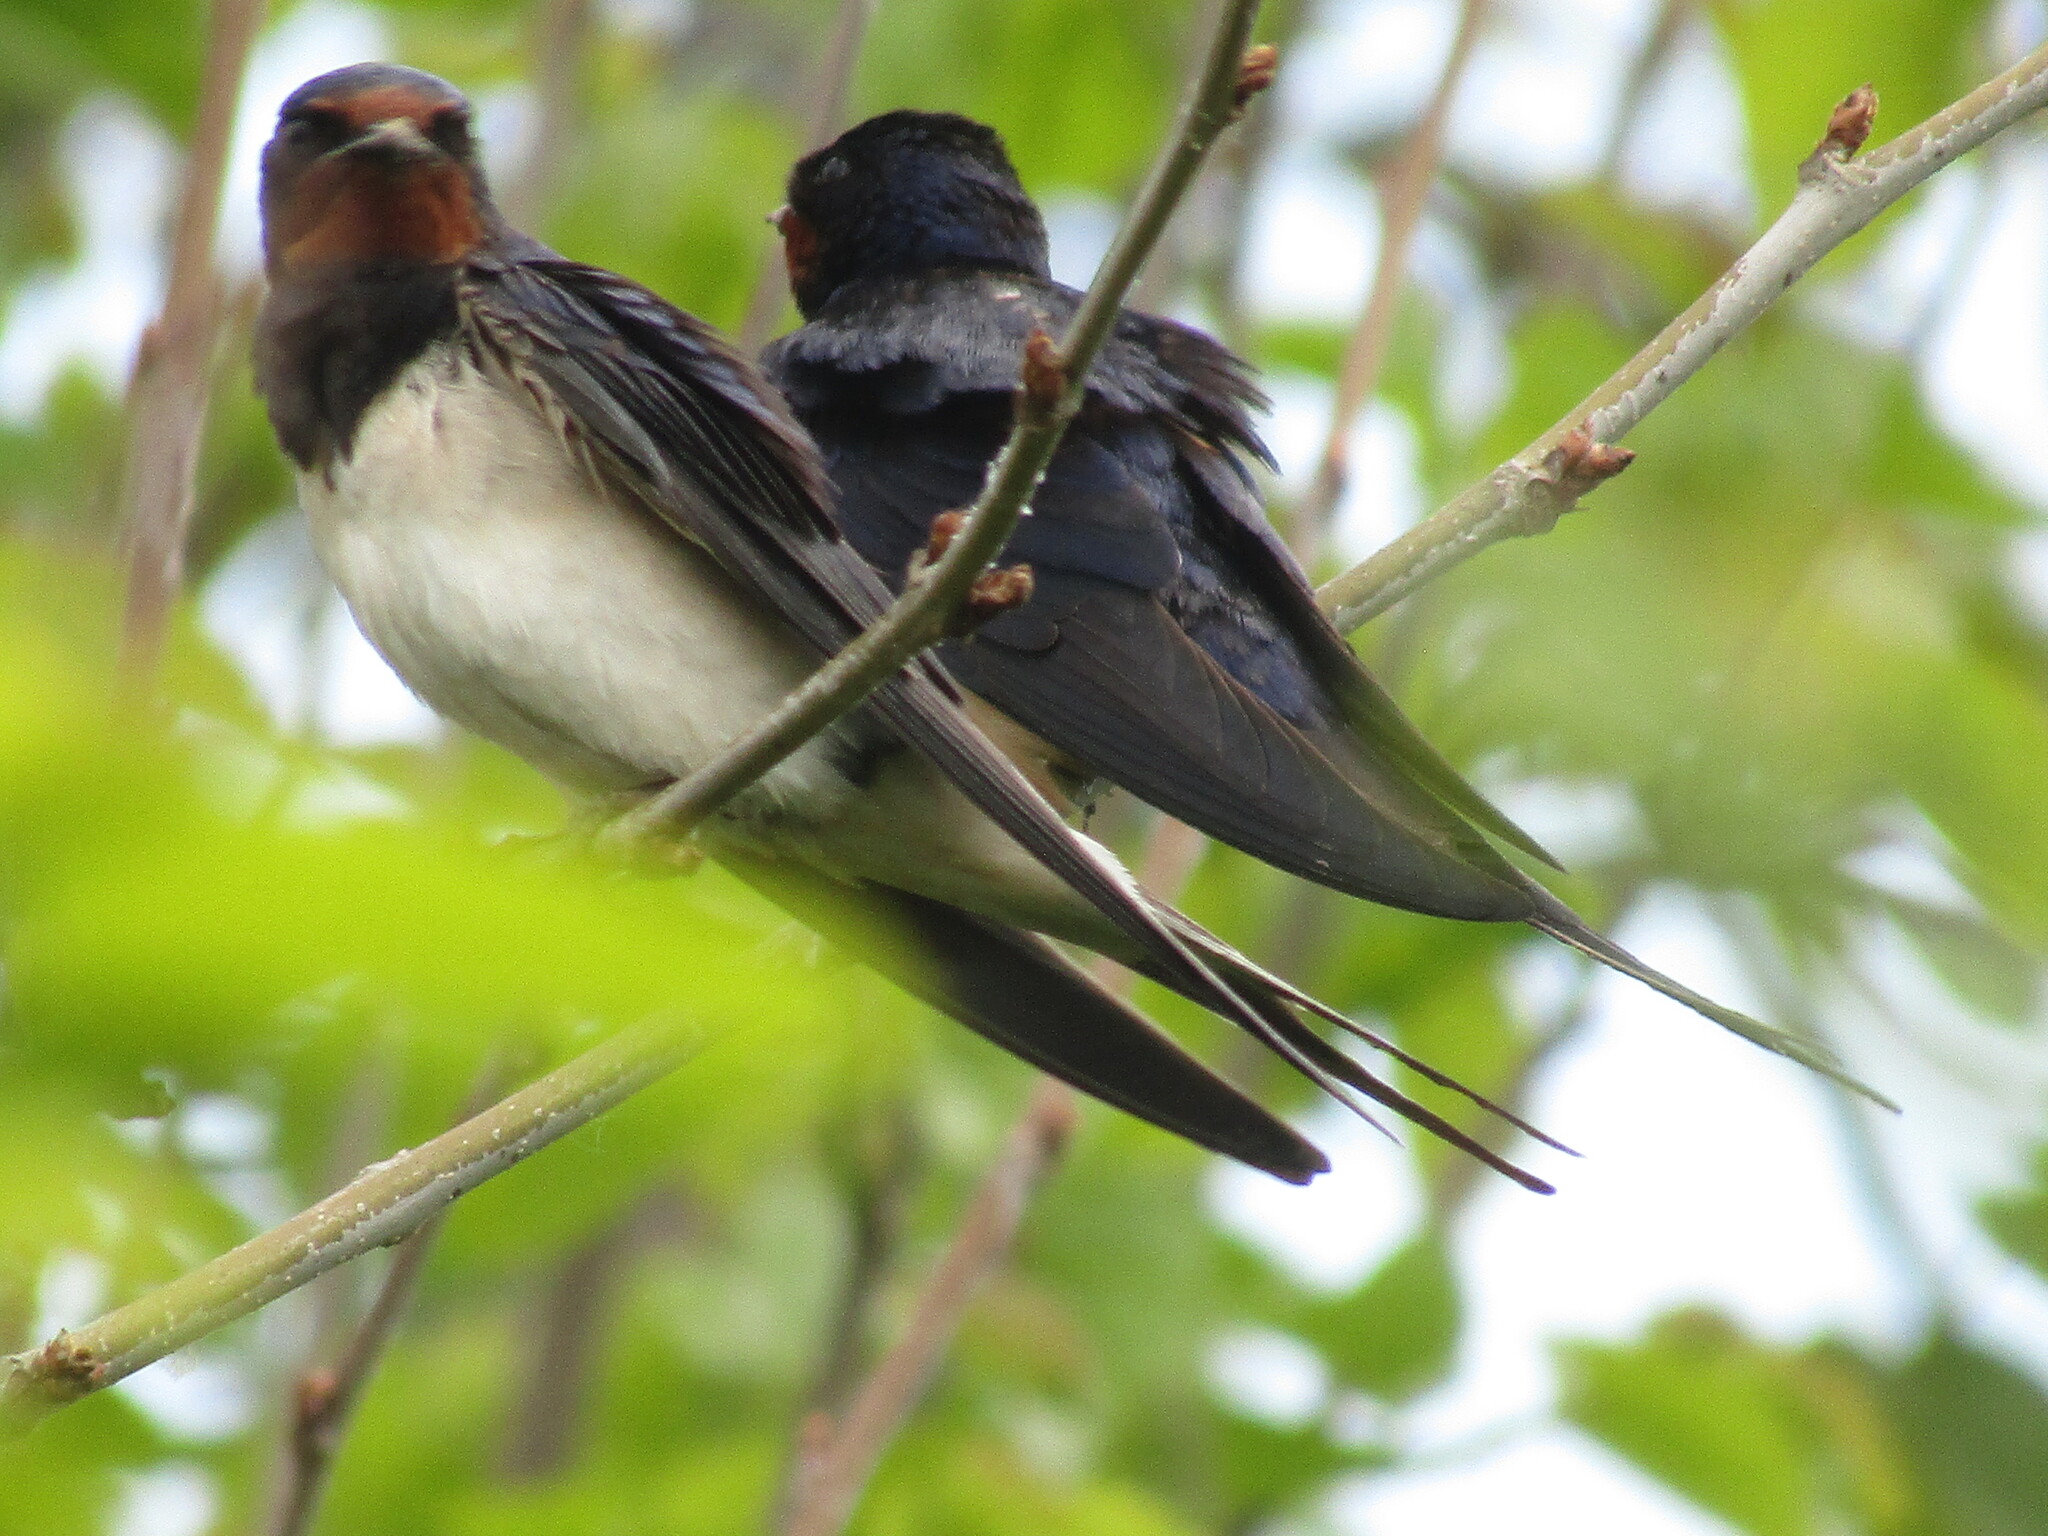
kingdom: Animalia
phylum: Chordata
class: Aves
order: Passeriformes
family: Hirundinidae
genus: Hirundo
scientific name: Hirundo rustica
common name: Barn swallow
